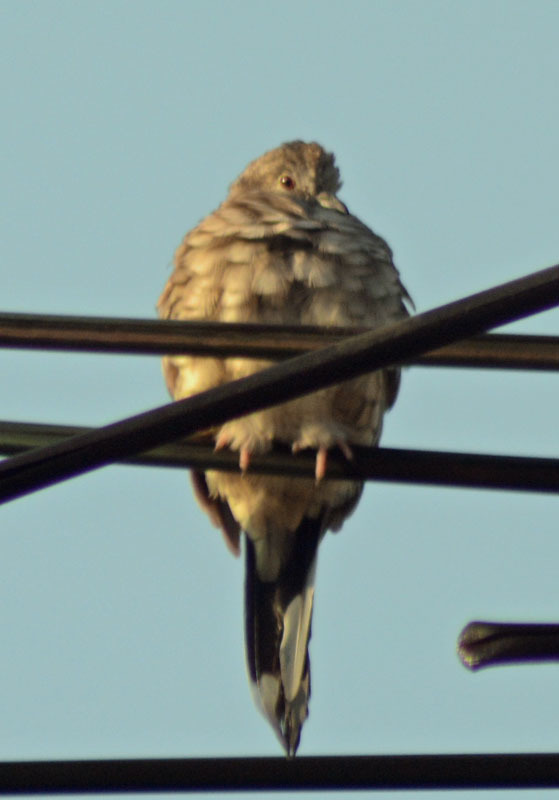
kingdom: Animalia
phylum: Chordata
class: Aves
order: Columbiformes
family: Columbidae
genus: Columbina
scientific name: Columbina inca
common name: Inca dove
